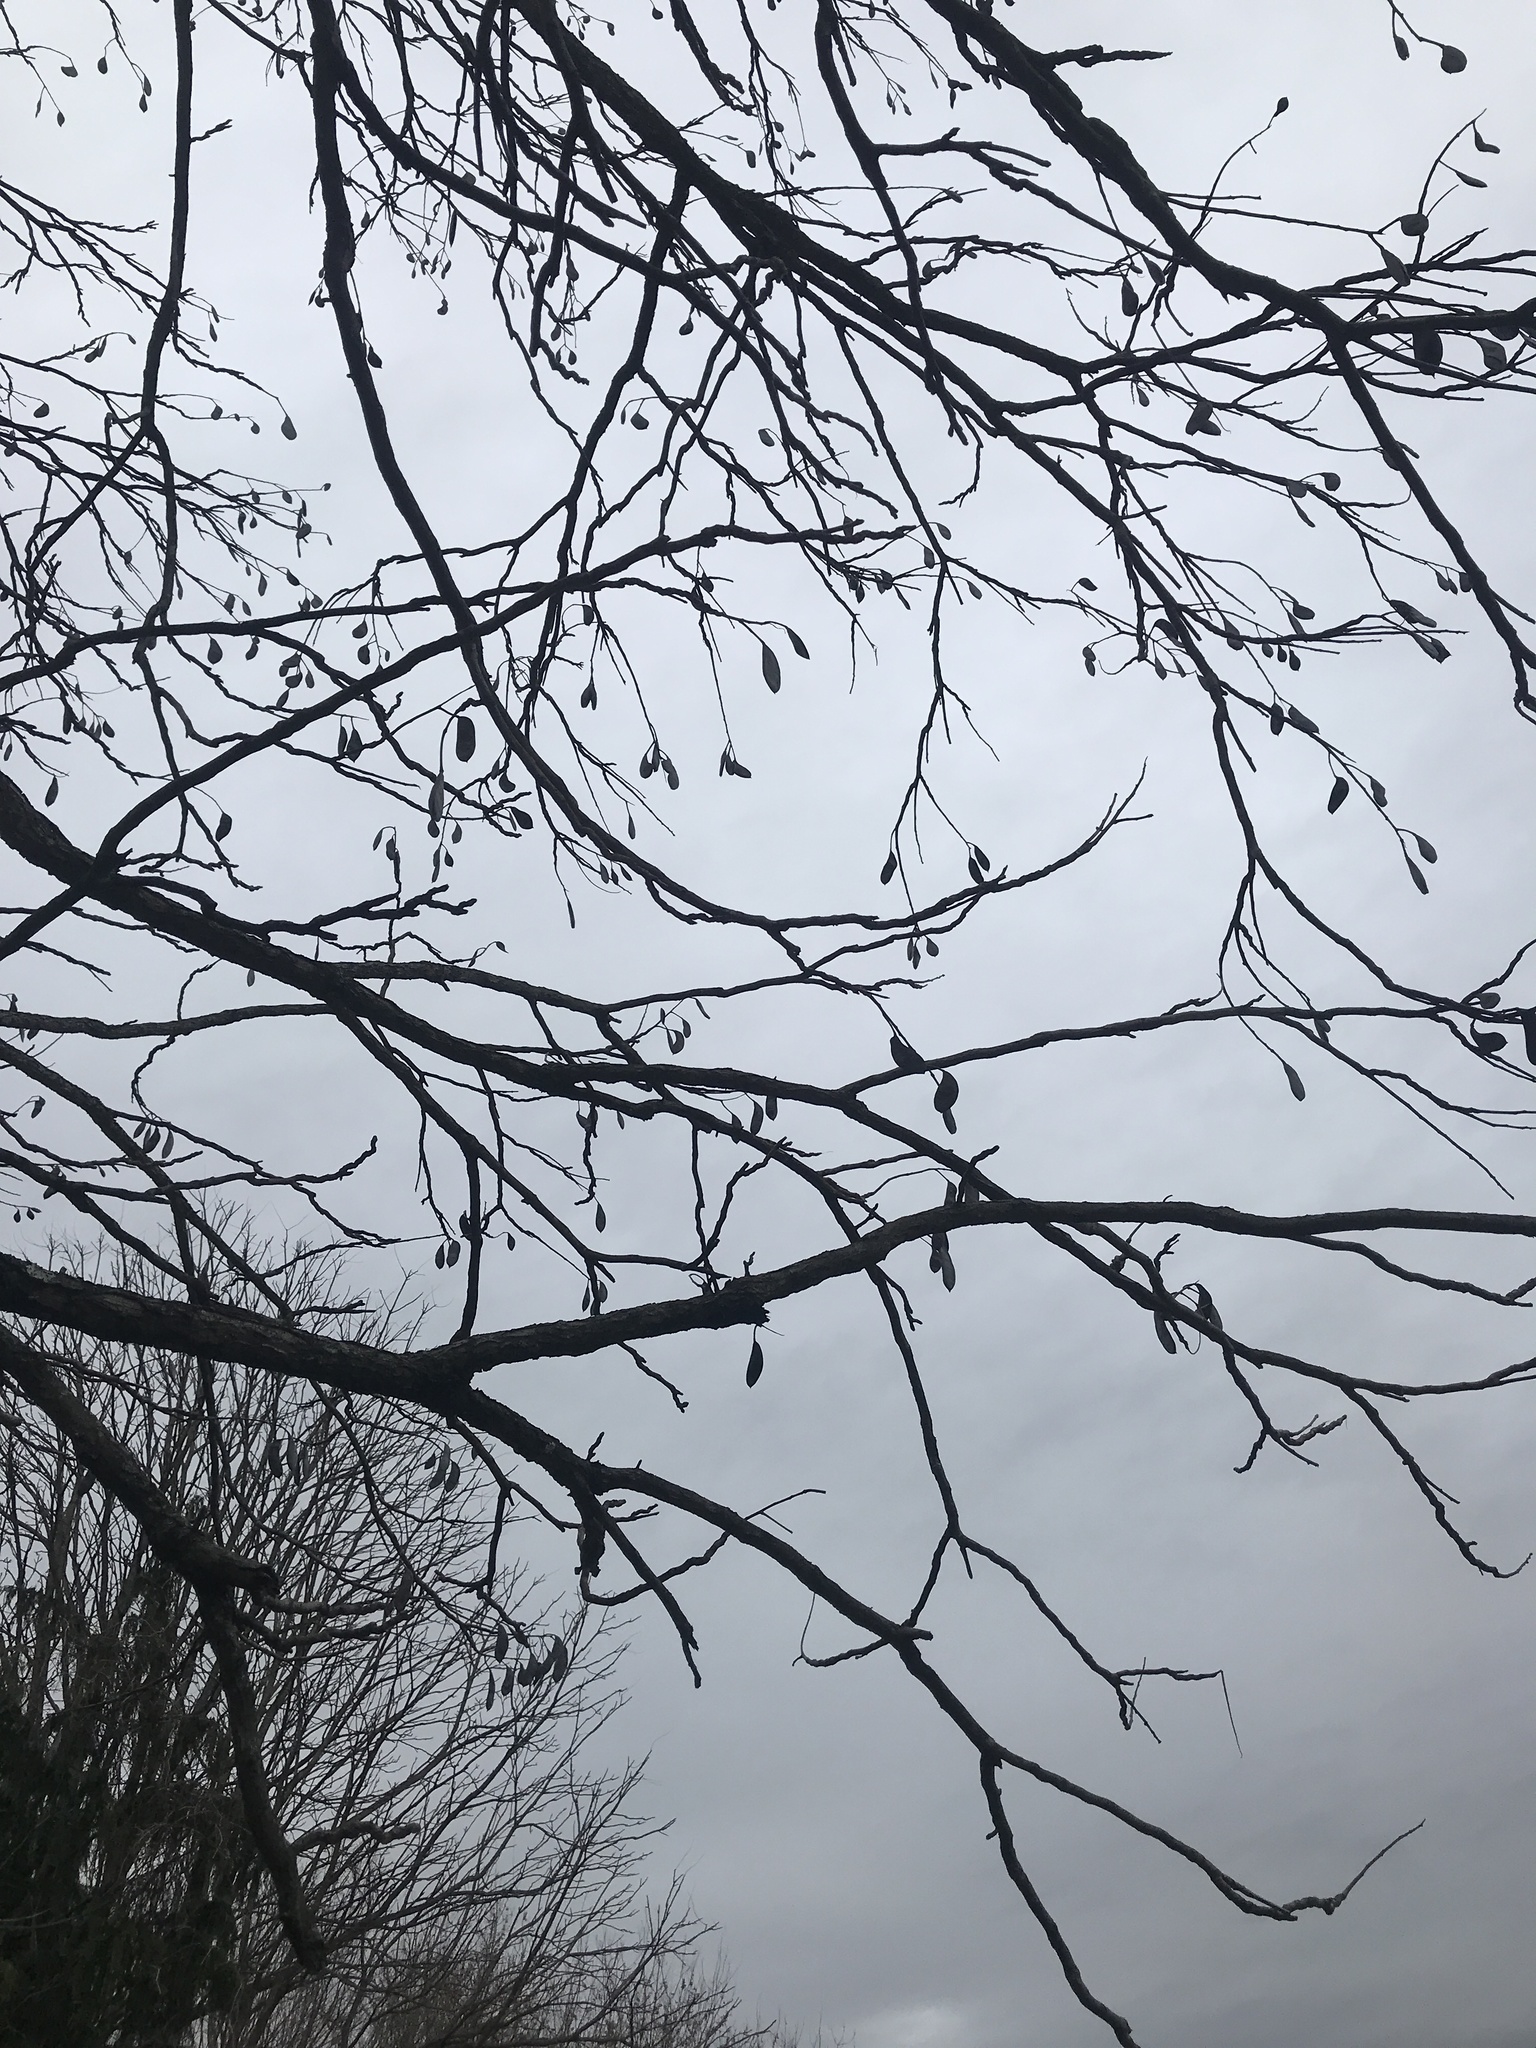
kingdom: Plantae
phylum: Tracheophyta
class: Magnoliopsida
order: Fabales
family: Fabaceae
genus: Gymnocladus
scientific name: Gymnocladus dioicus
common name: Kentucky coffee-tree
